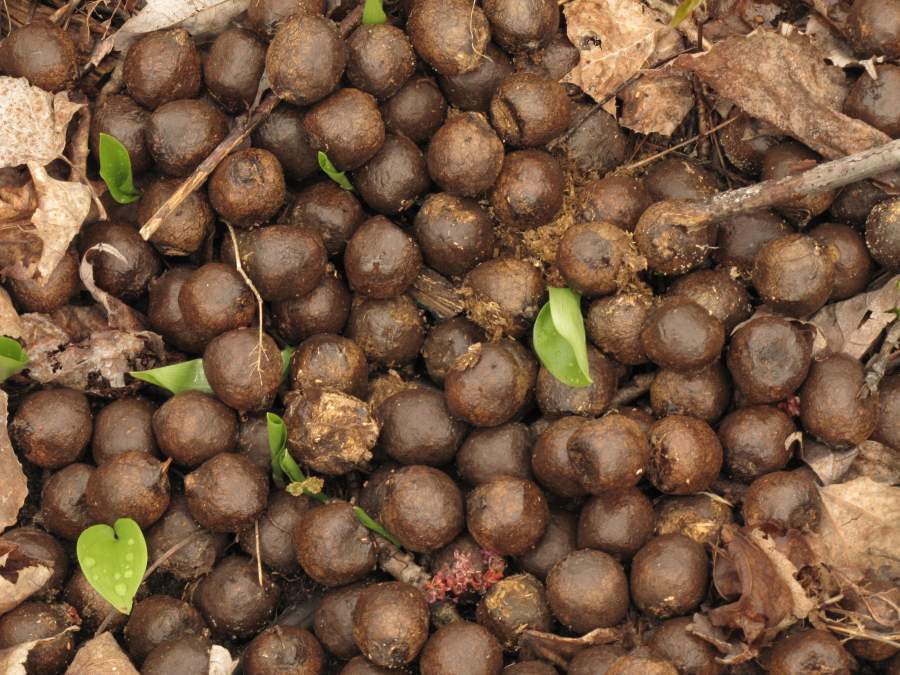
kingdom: Animalia
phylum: Chordata
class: Mammalia
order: Artiodactyla
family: Cervidae
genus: Alces
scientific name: Alces alces
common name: Moose
